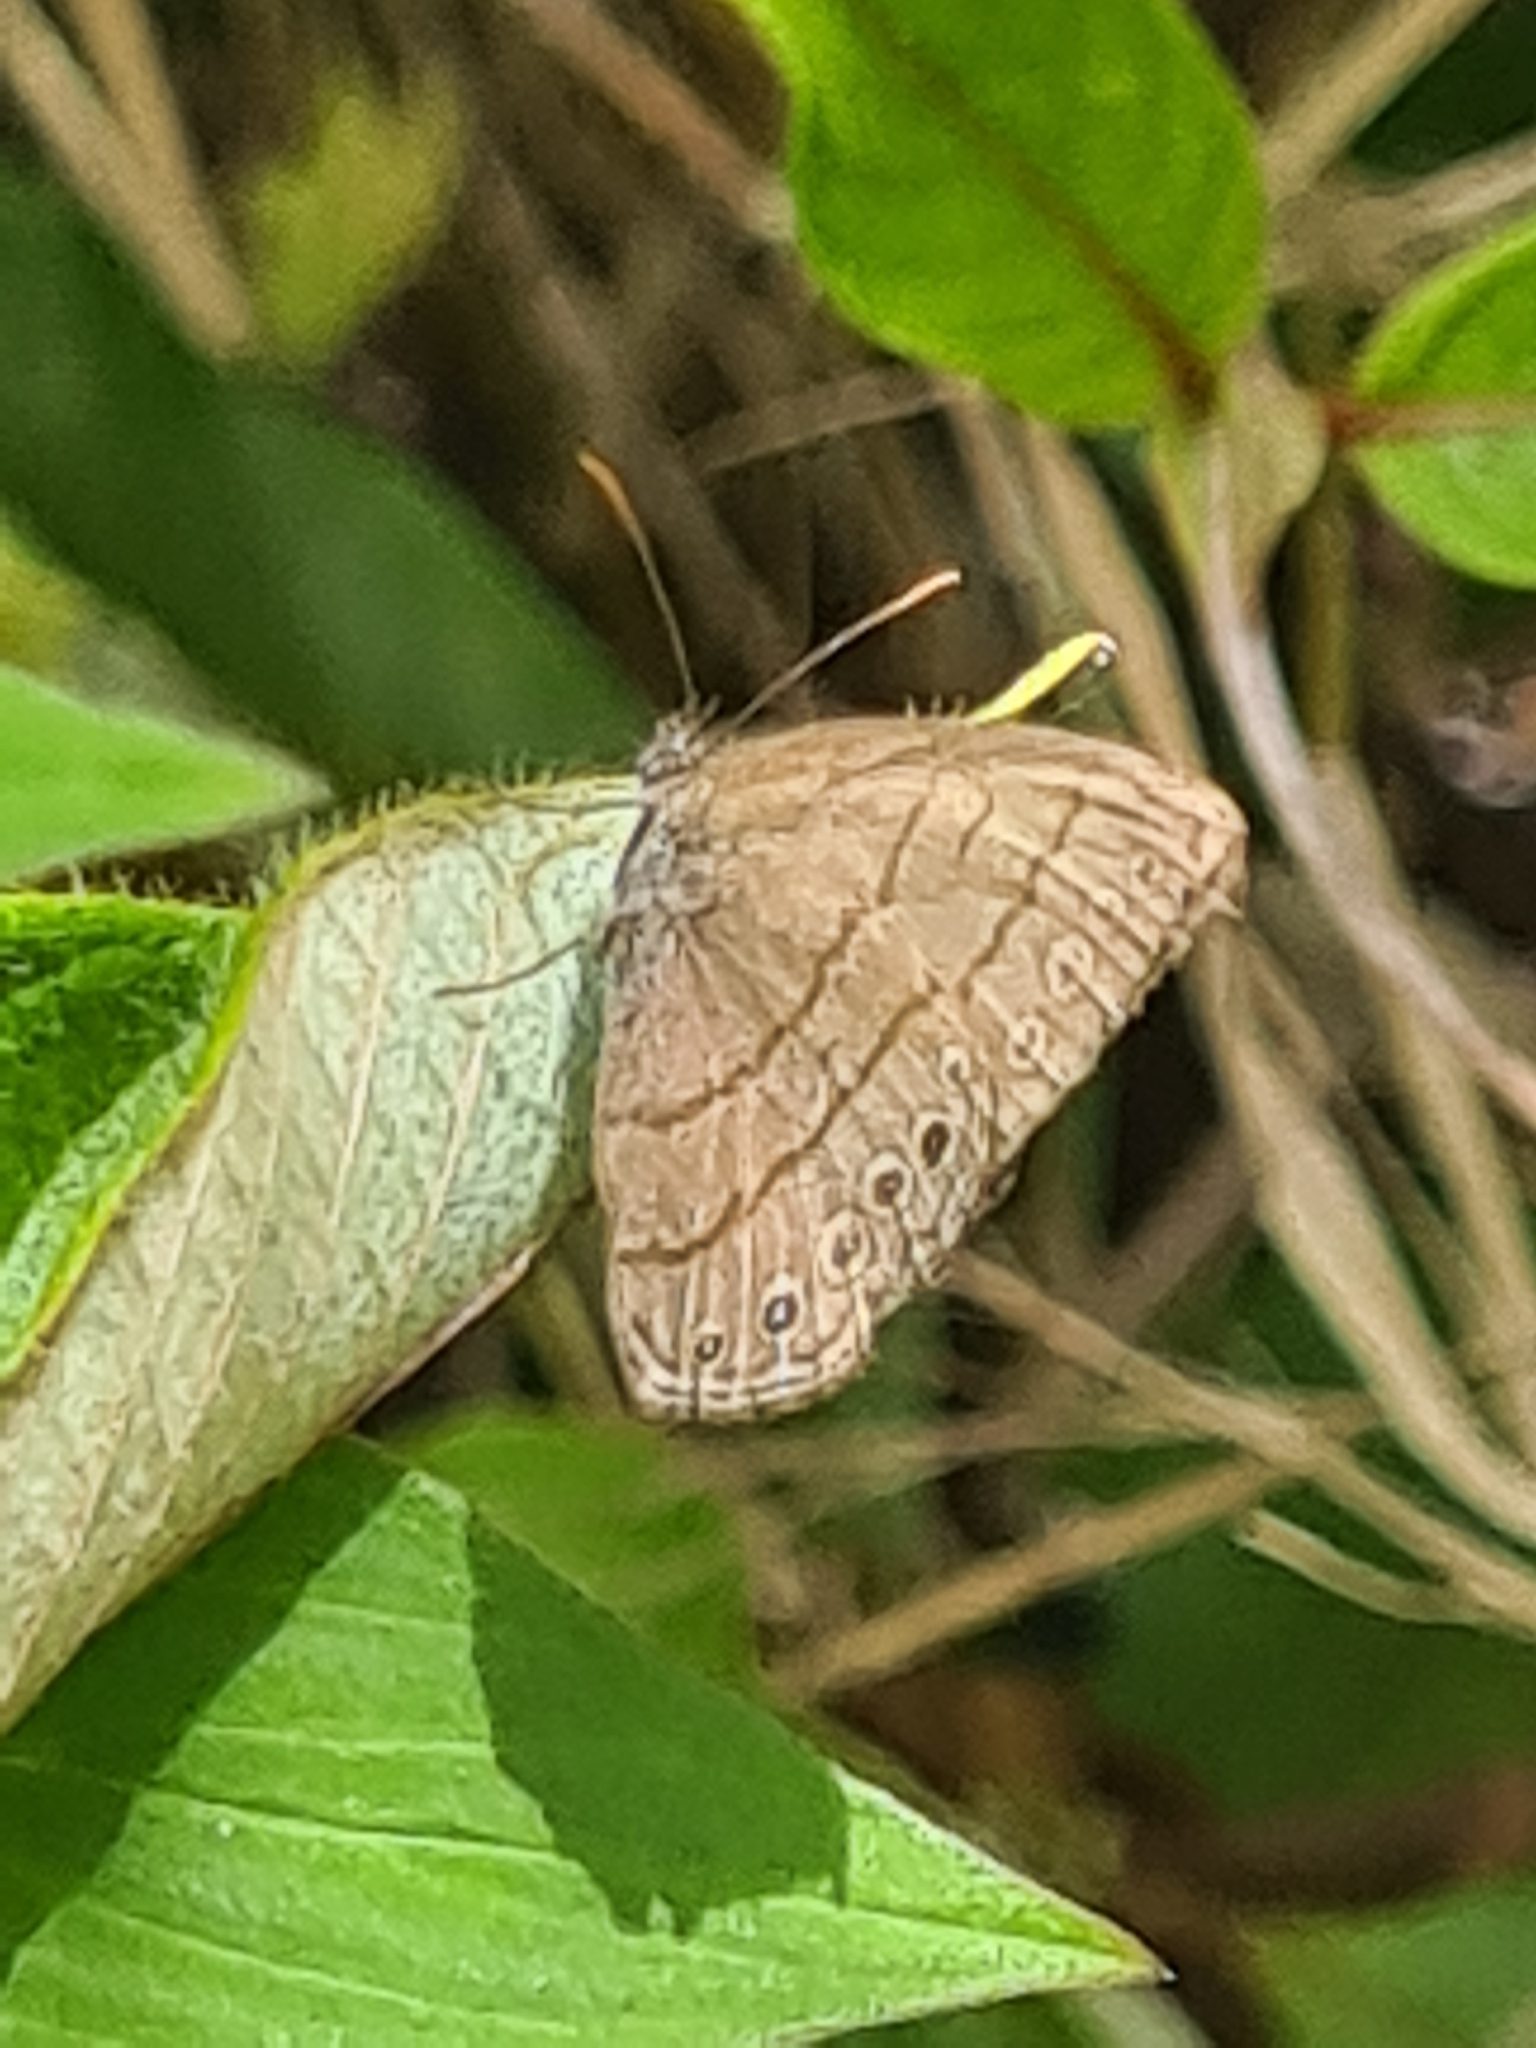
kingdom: Animalia
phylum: Arthropoda
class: Insecta
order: Lepidoptera
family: Nymphalidae
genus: Hermeuptychia
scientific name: Hermeuptychia hermes
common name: Hermes satyr
